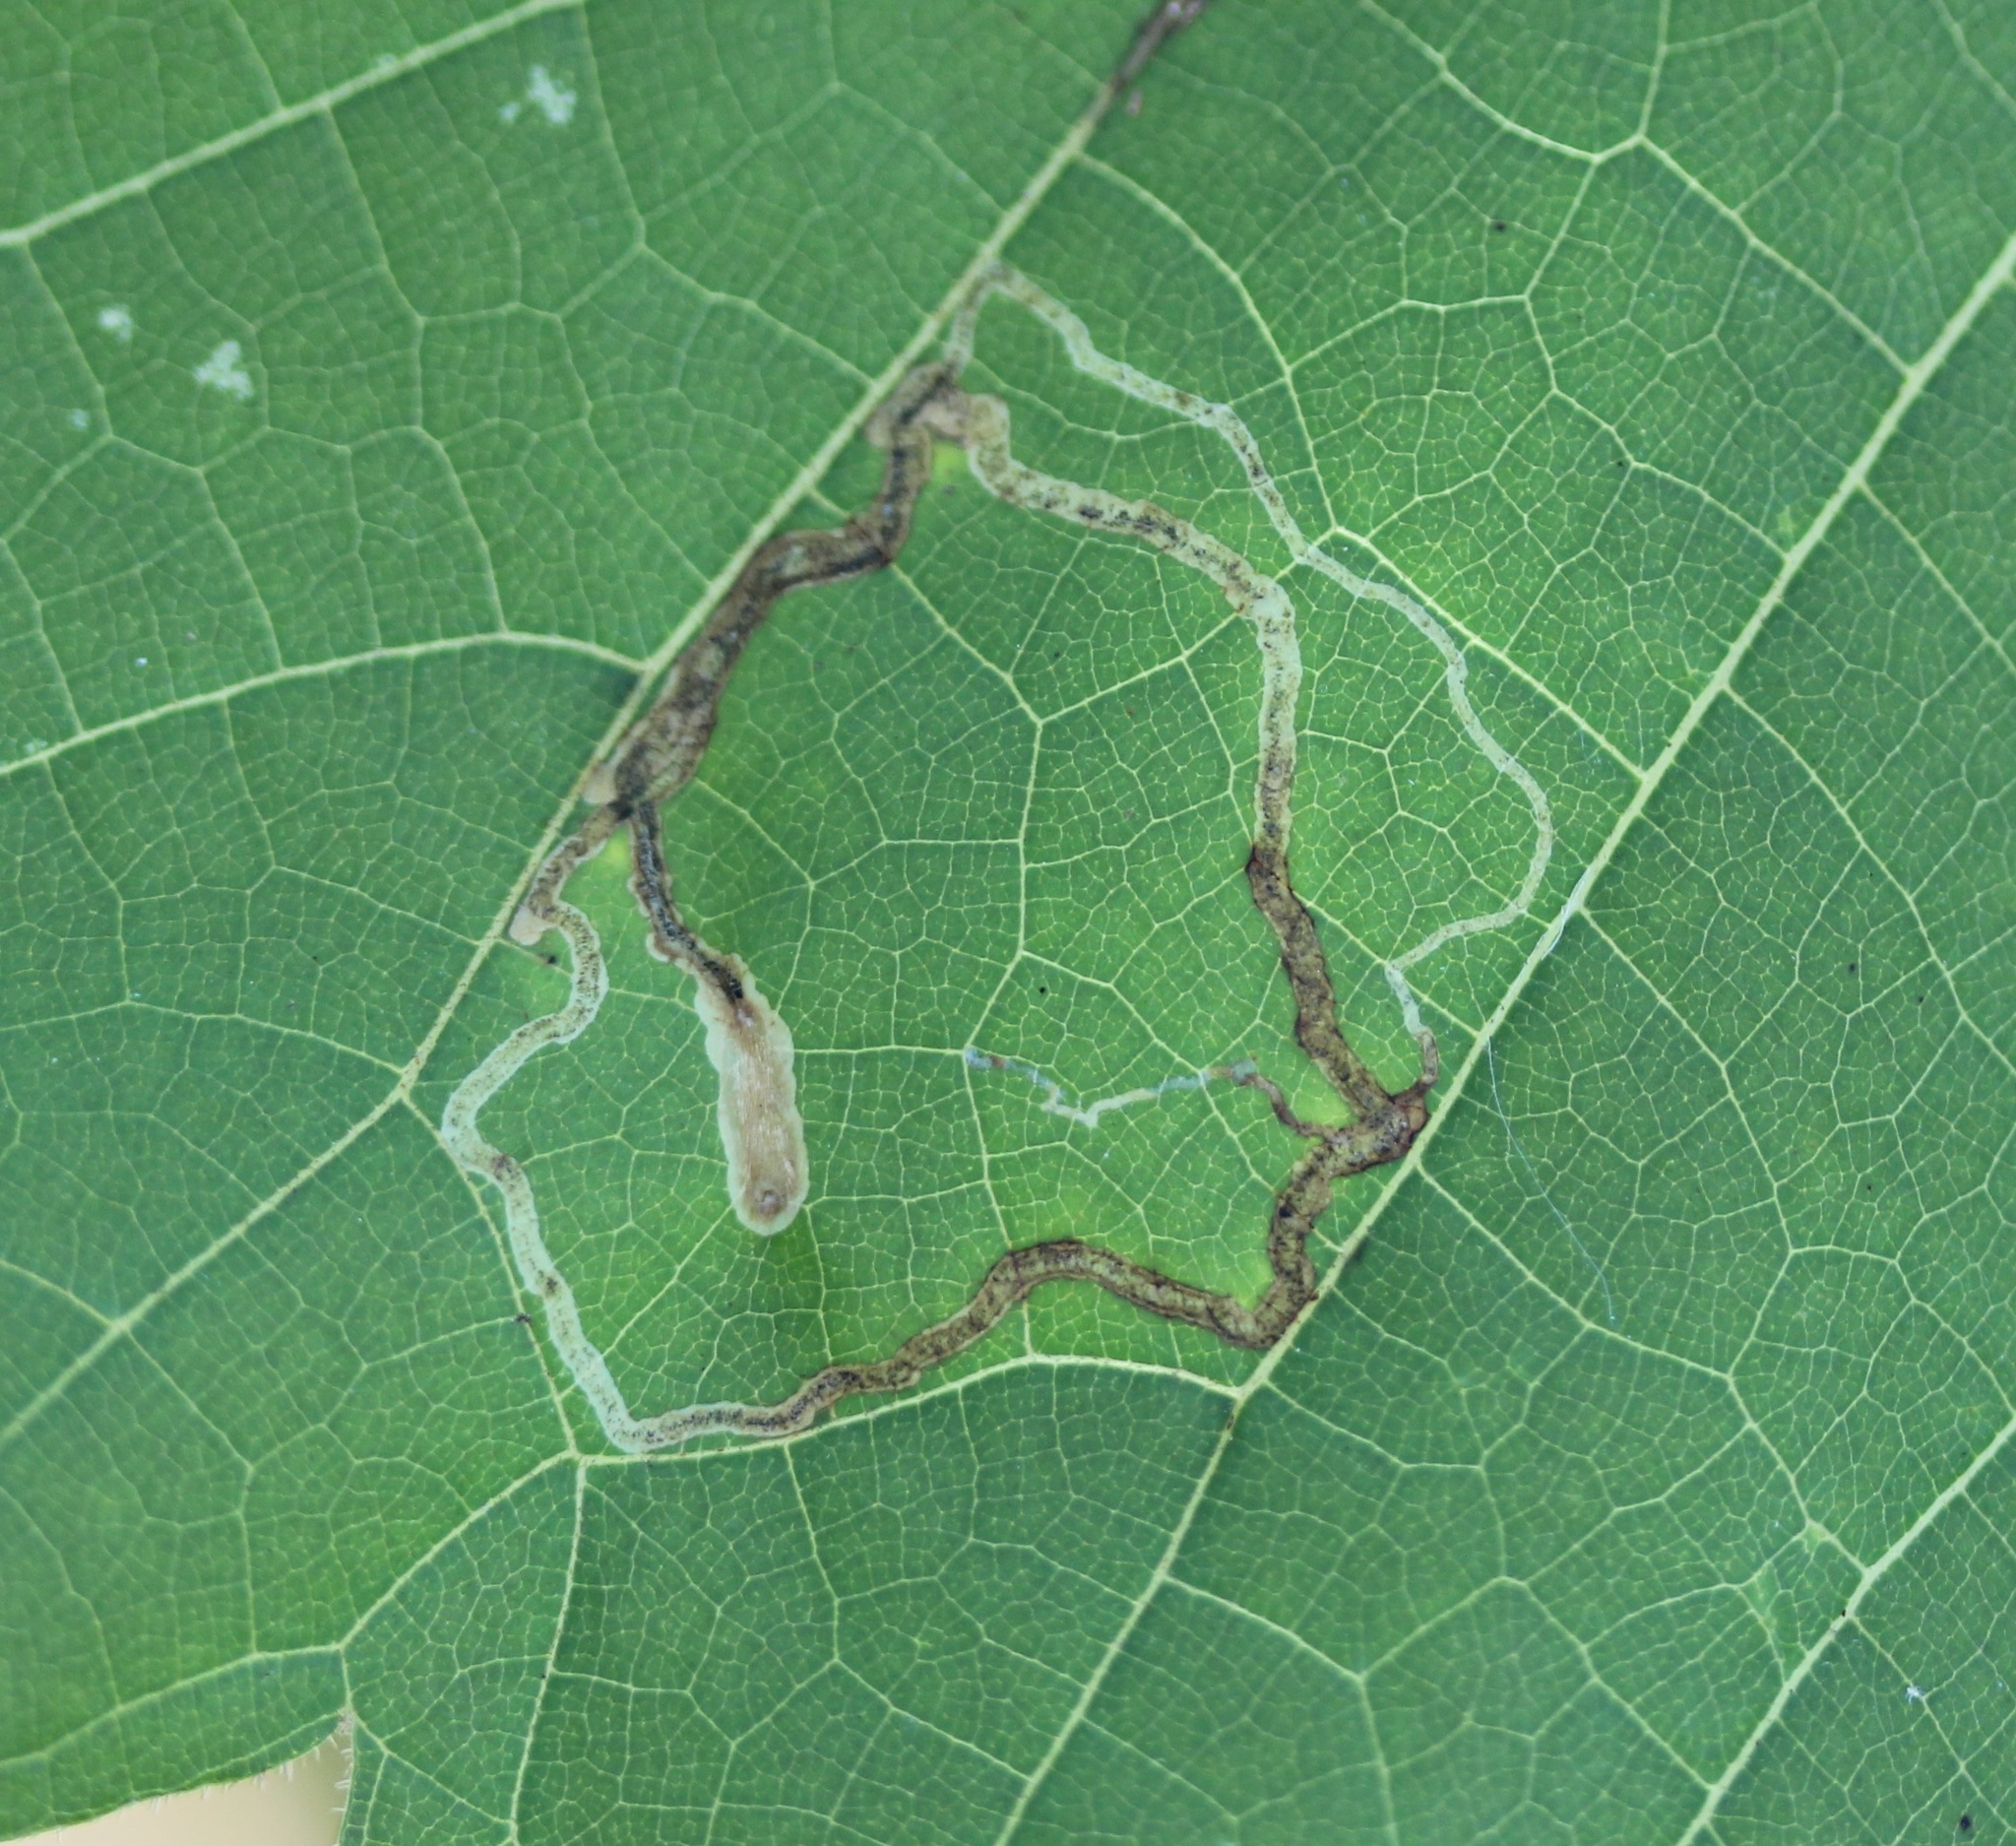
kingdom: Animalia
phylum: Arthropoda
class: Insecta
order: Lepidoptera
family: Gracillariidae
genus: Phyllocnistis
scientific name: Phyllocnistis vitifoliella
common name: Grape leaf-miner moth
